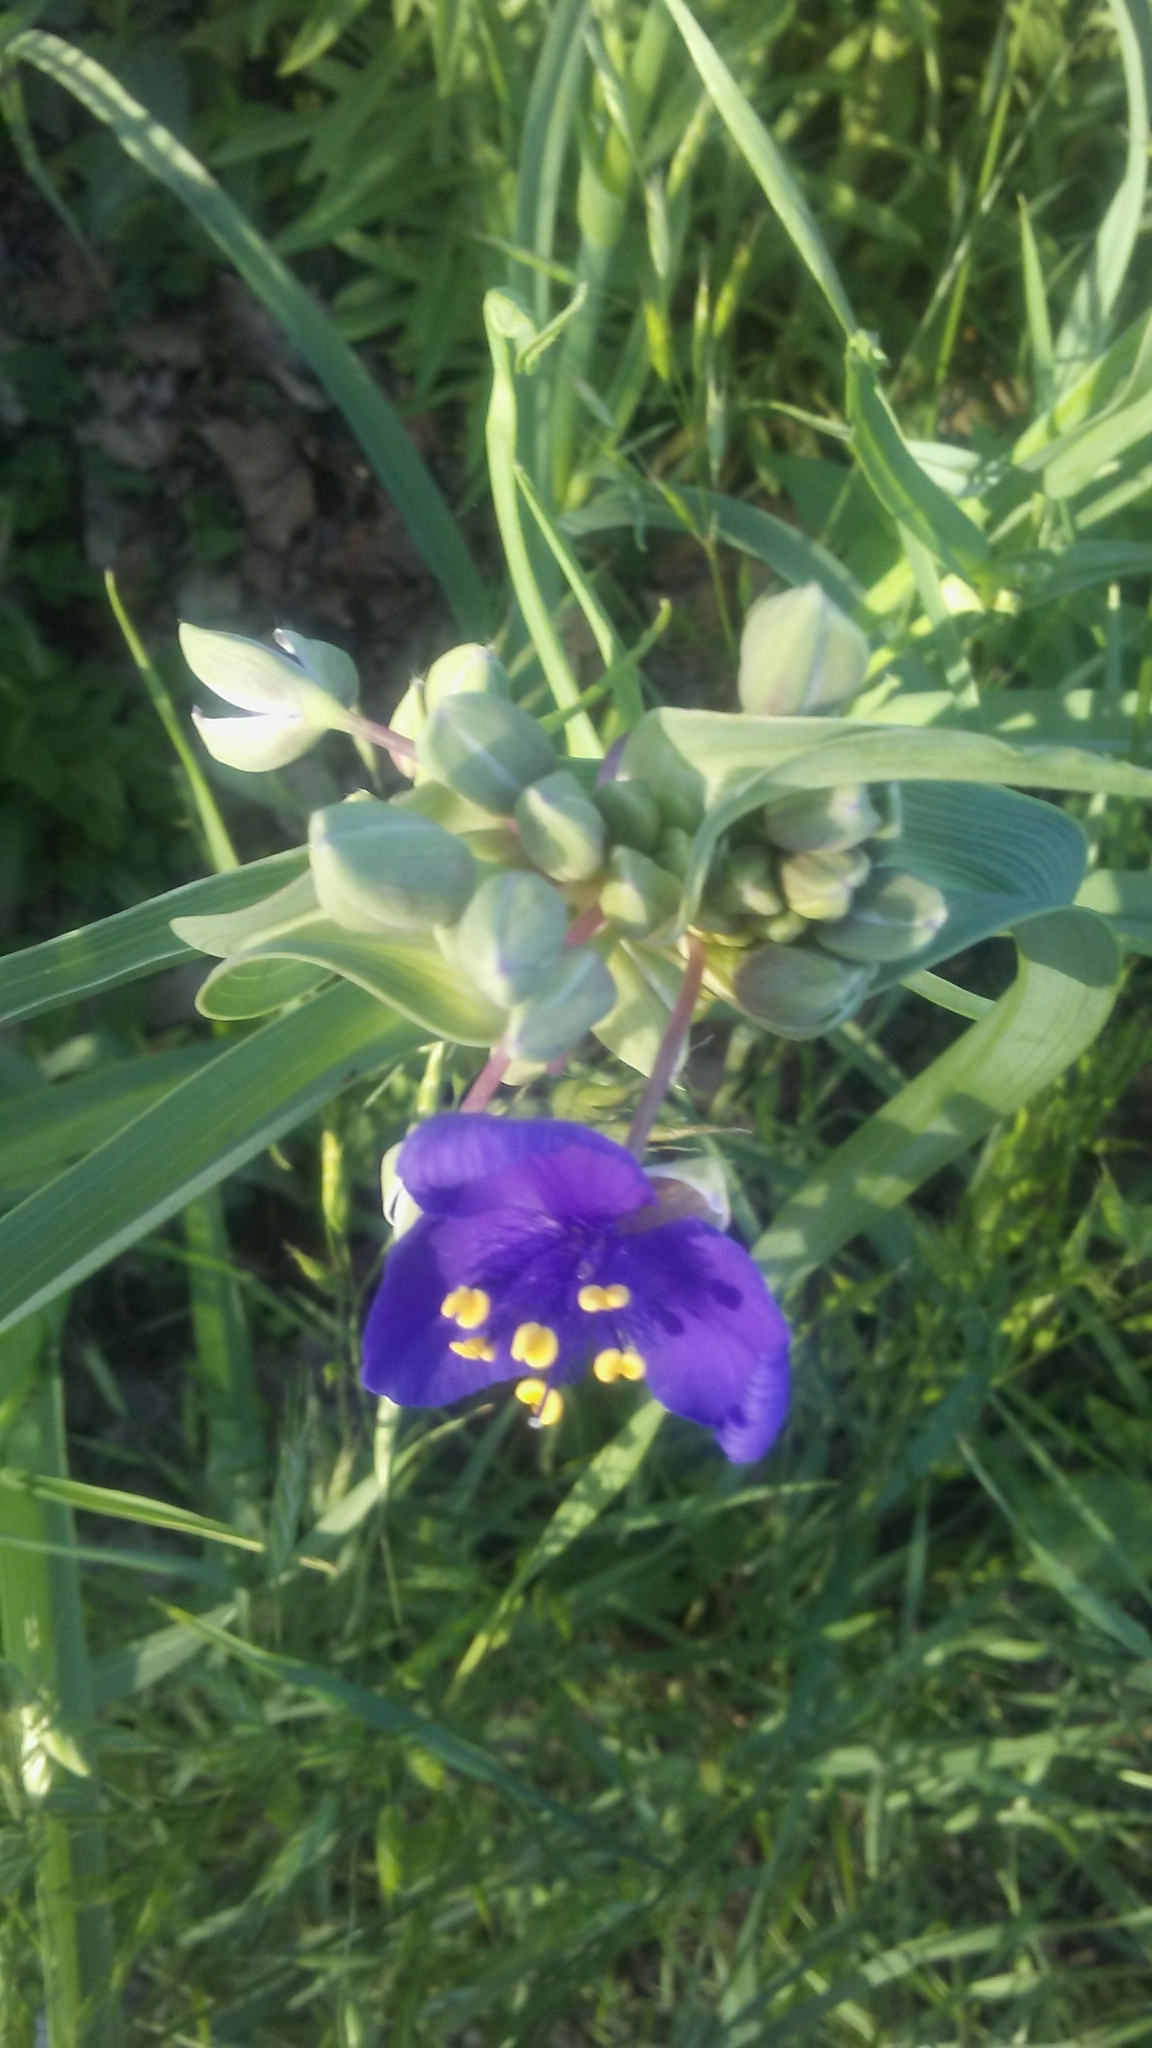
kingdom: Plantae
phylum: Tracheophyta
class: Liliopsida
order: Commelinales
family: Commelinaceae
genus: Tradescantia
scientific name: Tradescantia ohiensis
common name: Ohio spiderwort
